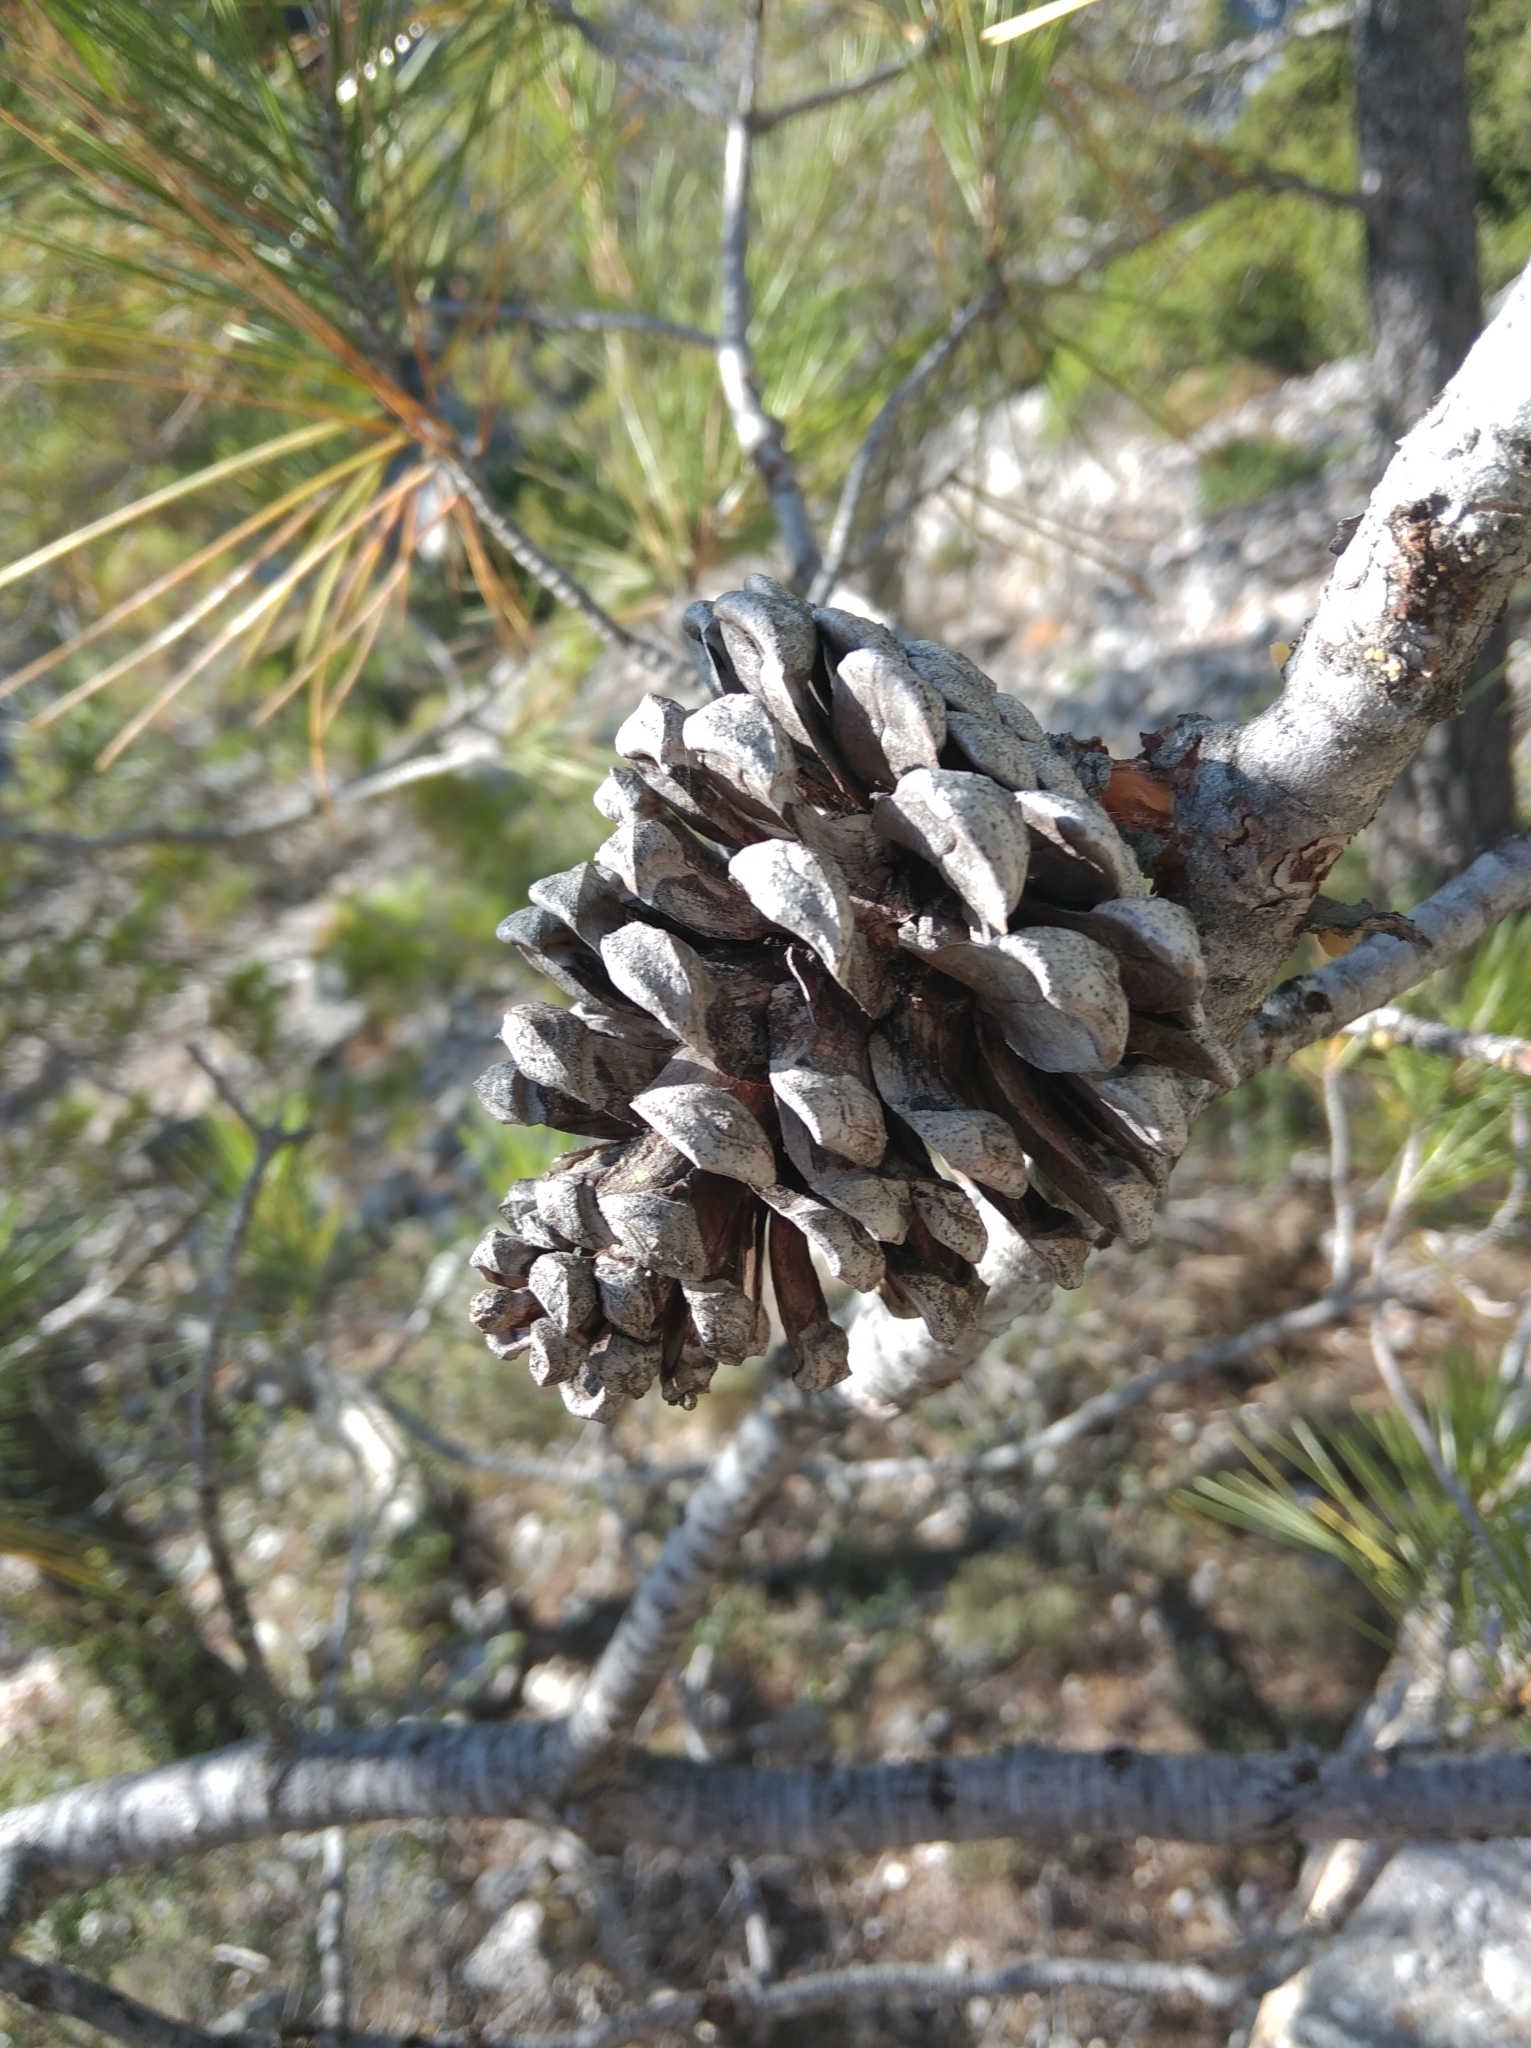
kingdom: Plantae
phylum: Tracheophyta
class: Pinopsida
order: Pinales
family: Pinaceae
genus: Pinus
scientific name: Pinus halepensis
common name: Aleppo pine
